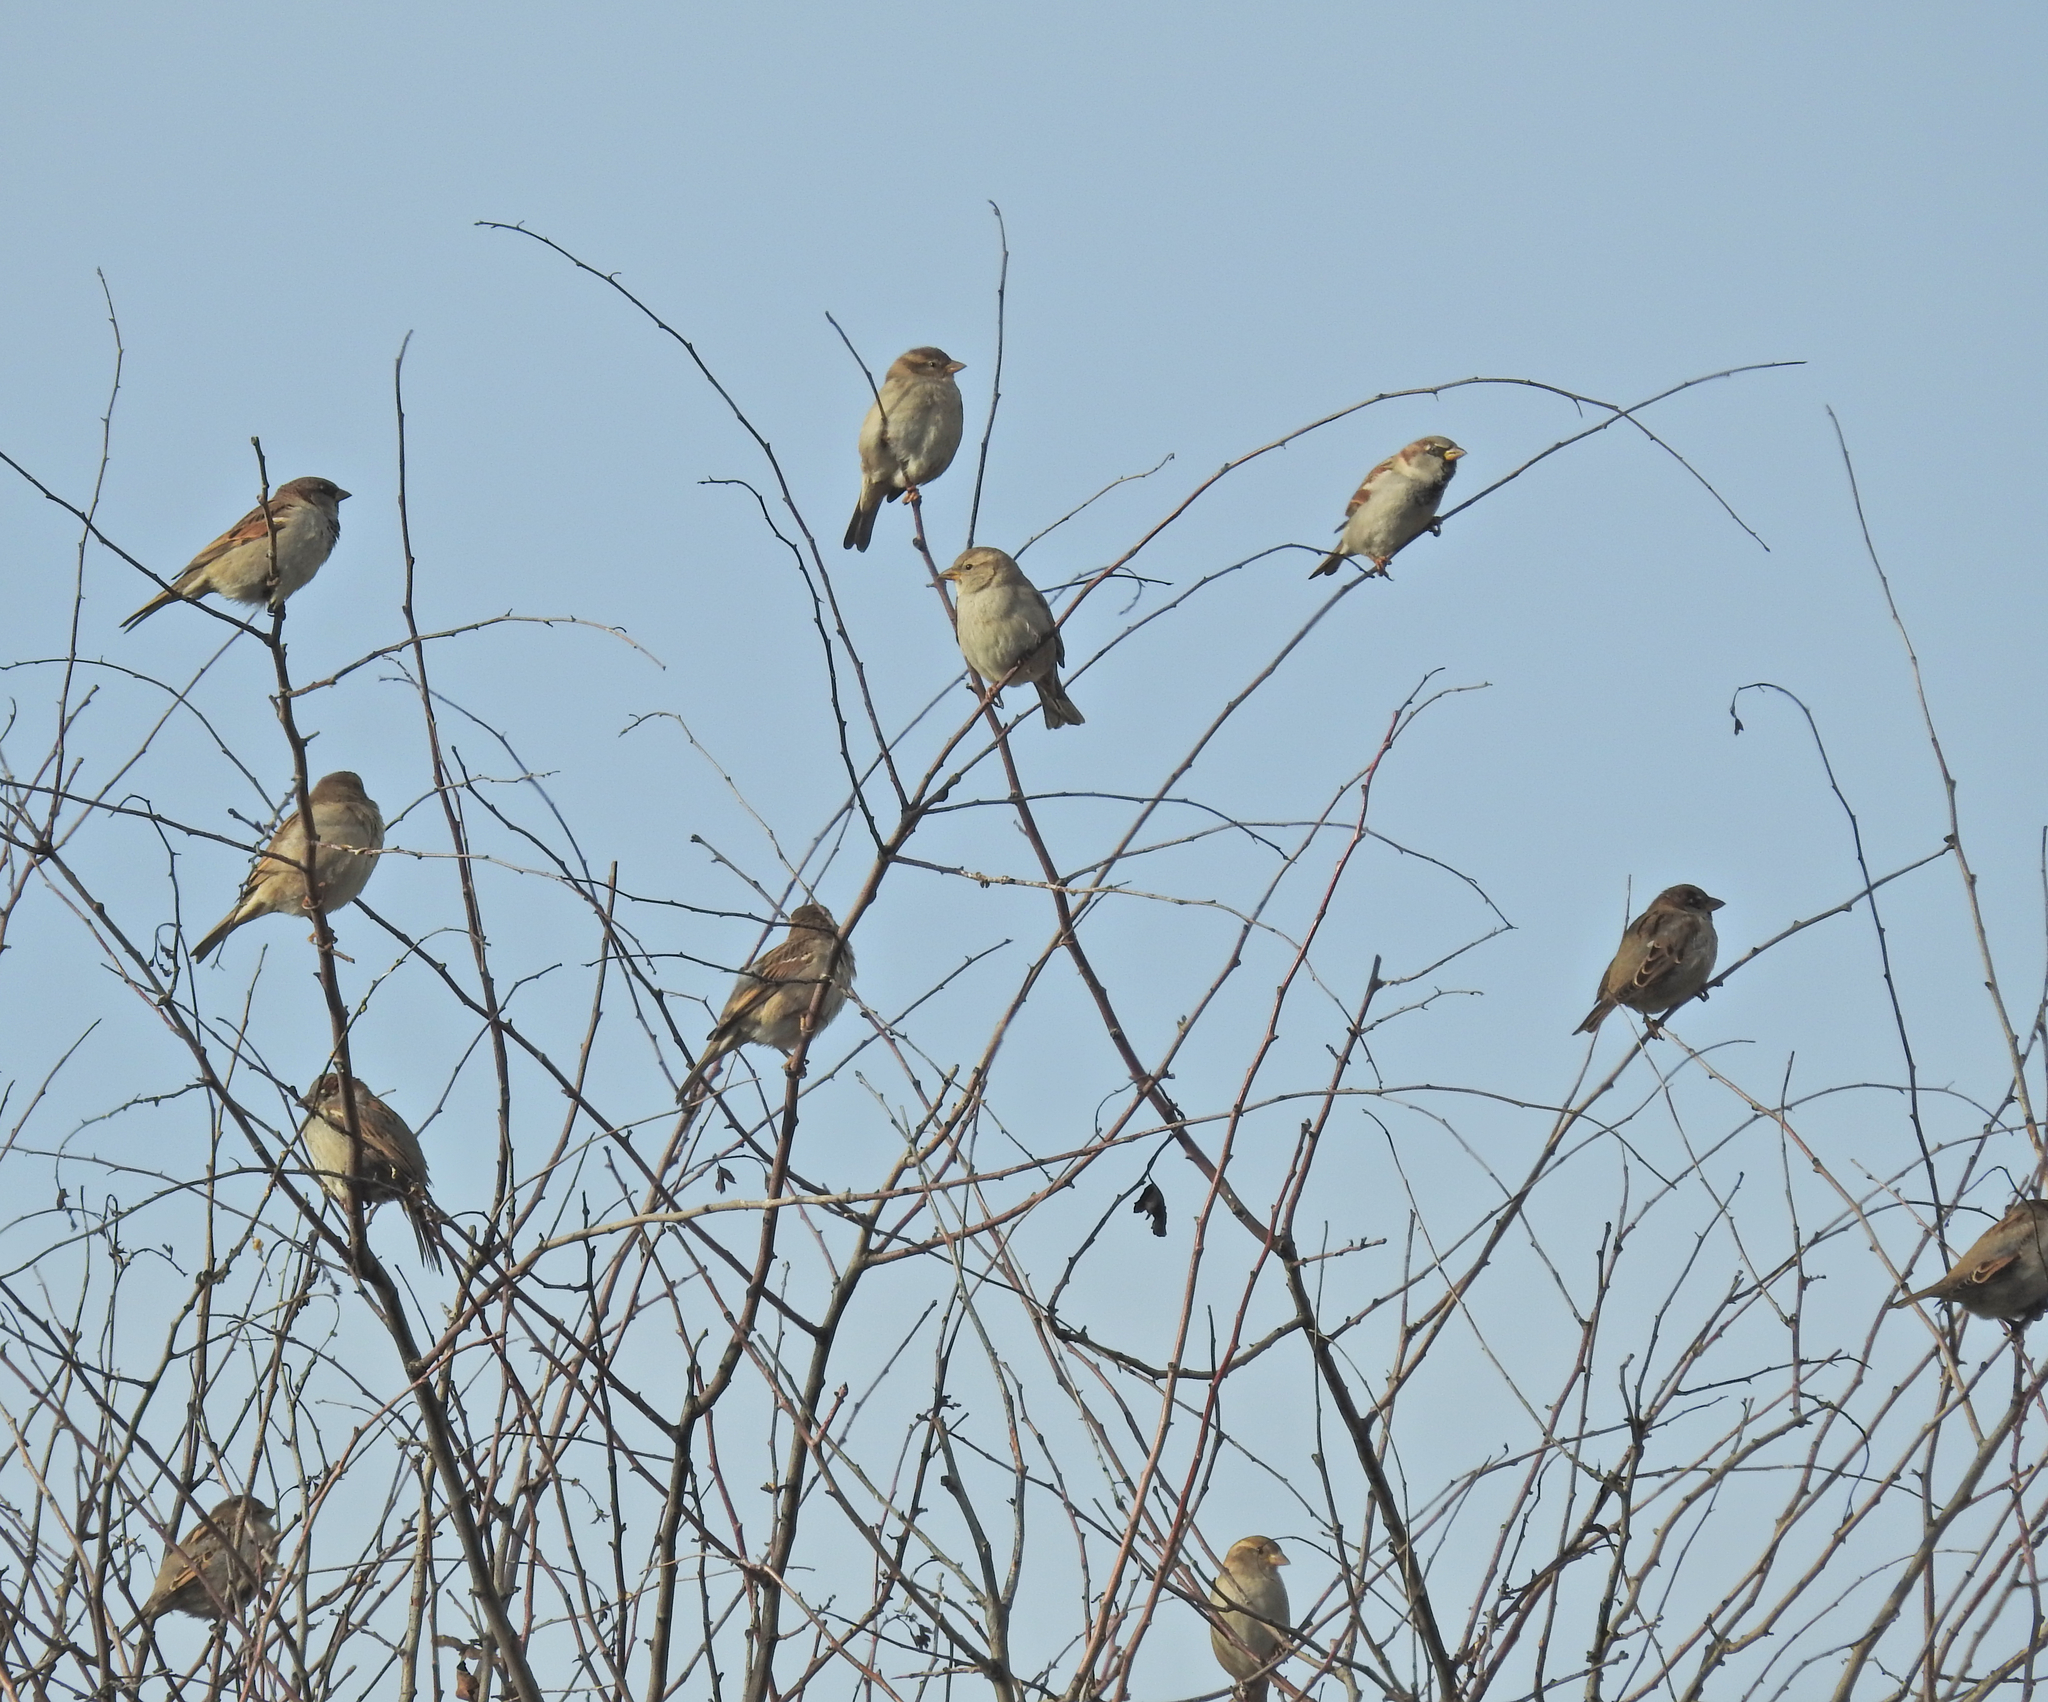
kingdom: Animalia
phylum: Chordata
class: Aves
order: Passeriformes
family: Passeridae
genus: Passer
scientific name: Passer domesticus
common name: House sparrow
